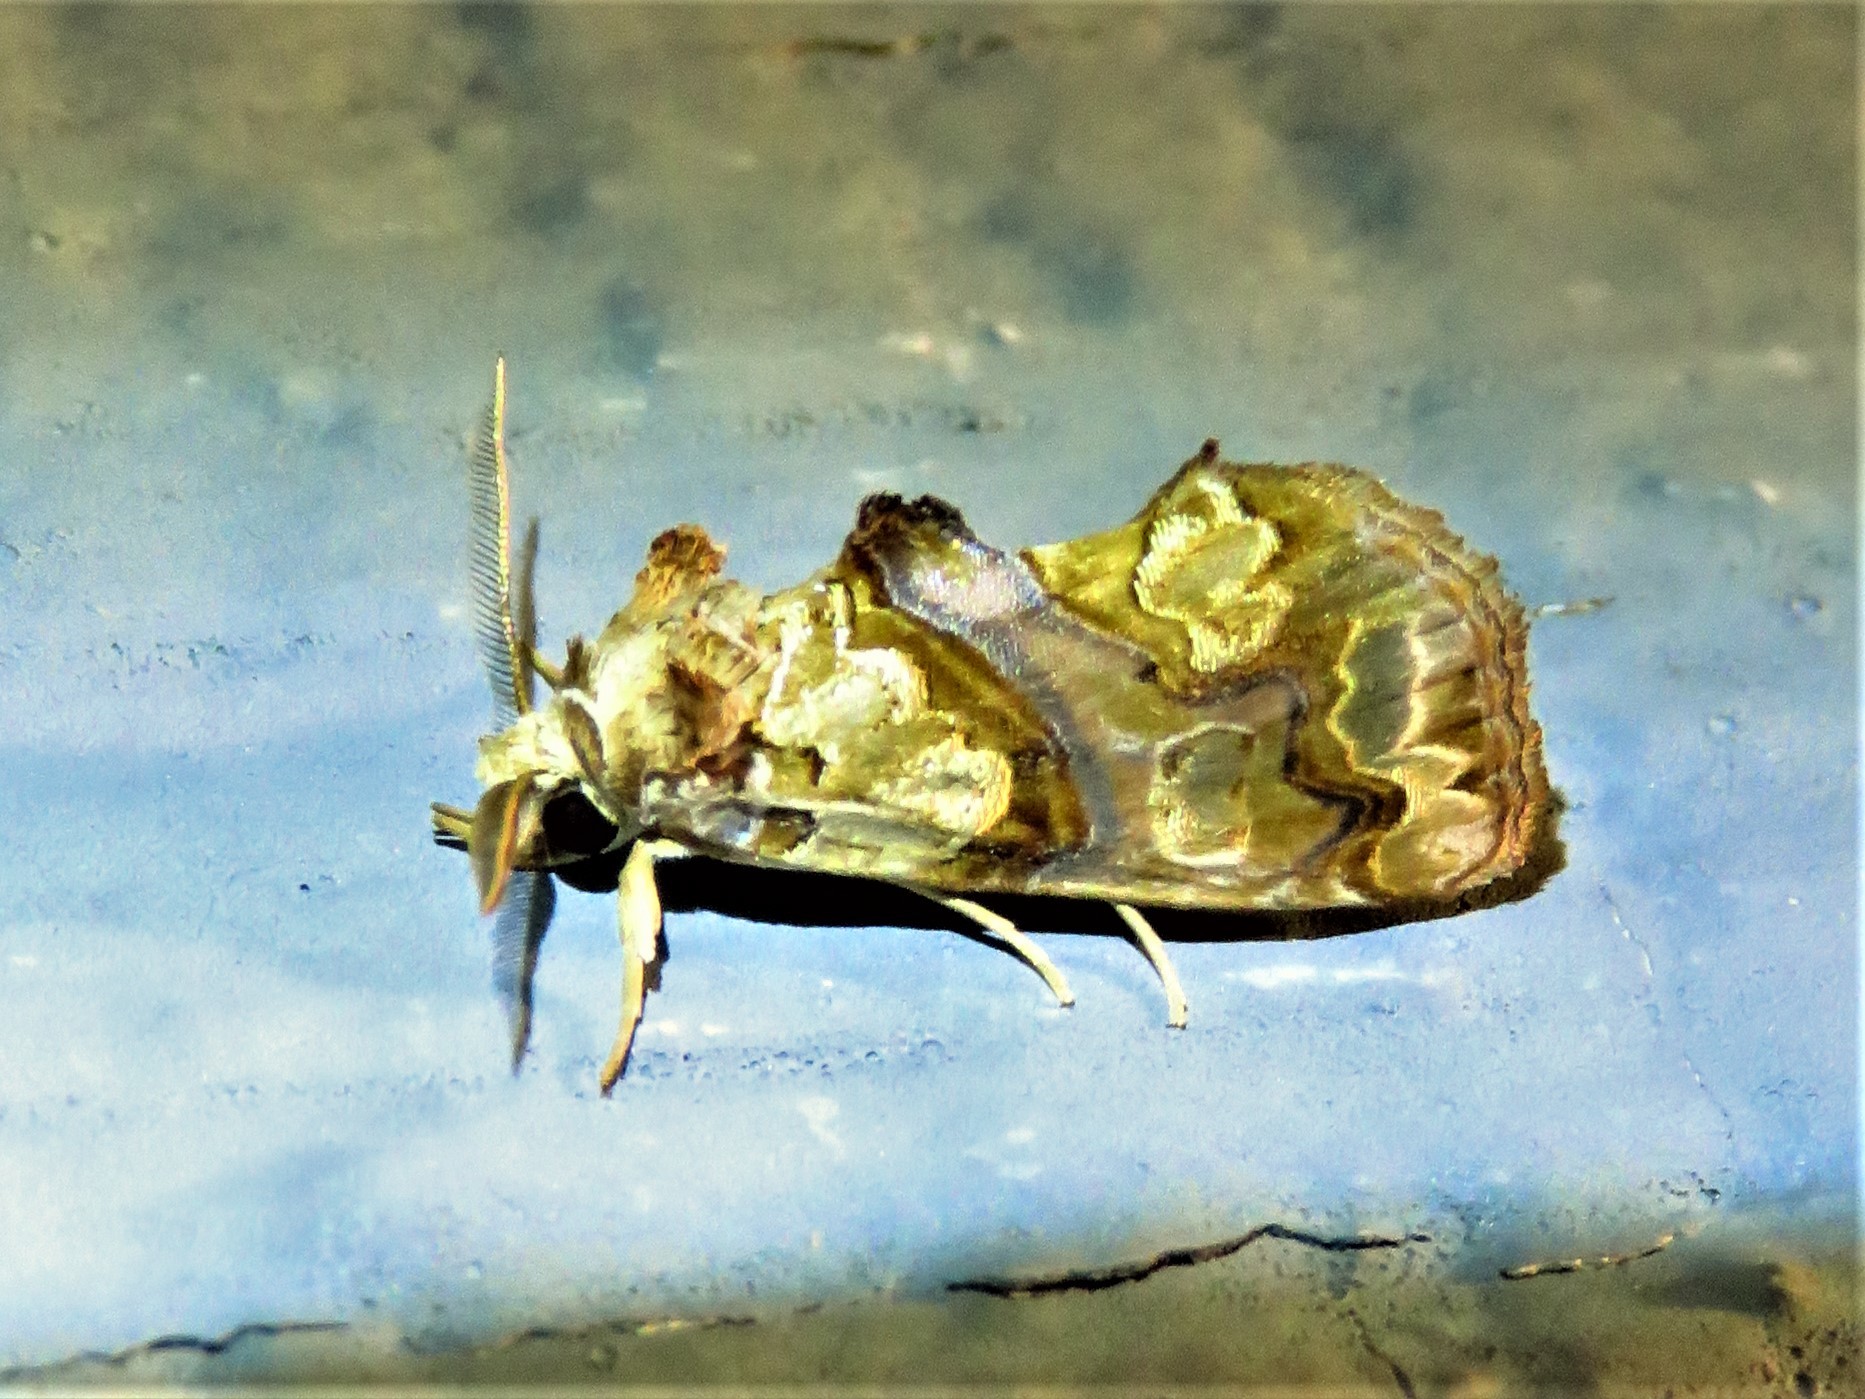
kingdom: Animalia
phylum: Arthropoda
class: Insecta
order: Lepidoptera
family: Erebidae
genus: Plusiodonta
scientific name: Plusiodonta compressipalpis
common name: Moonseed moth
